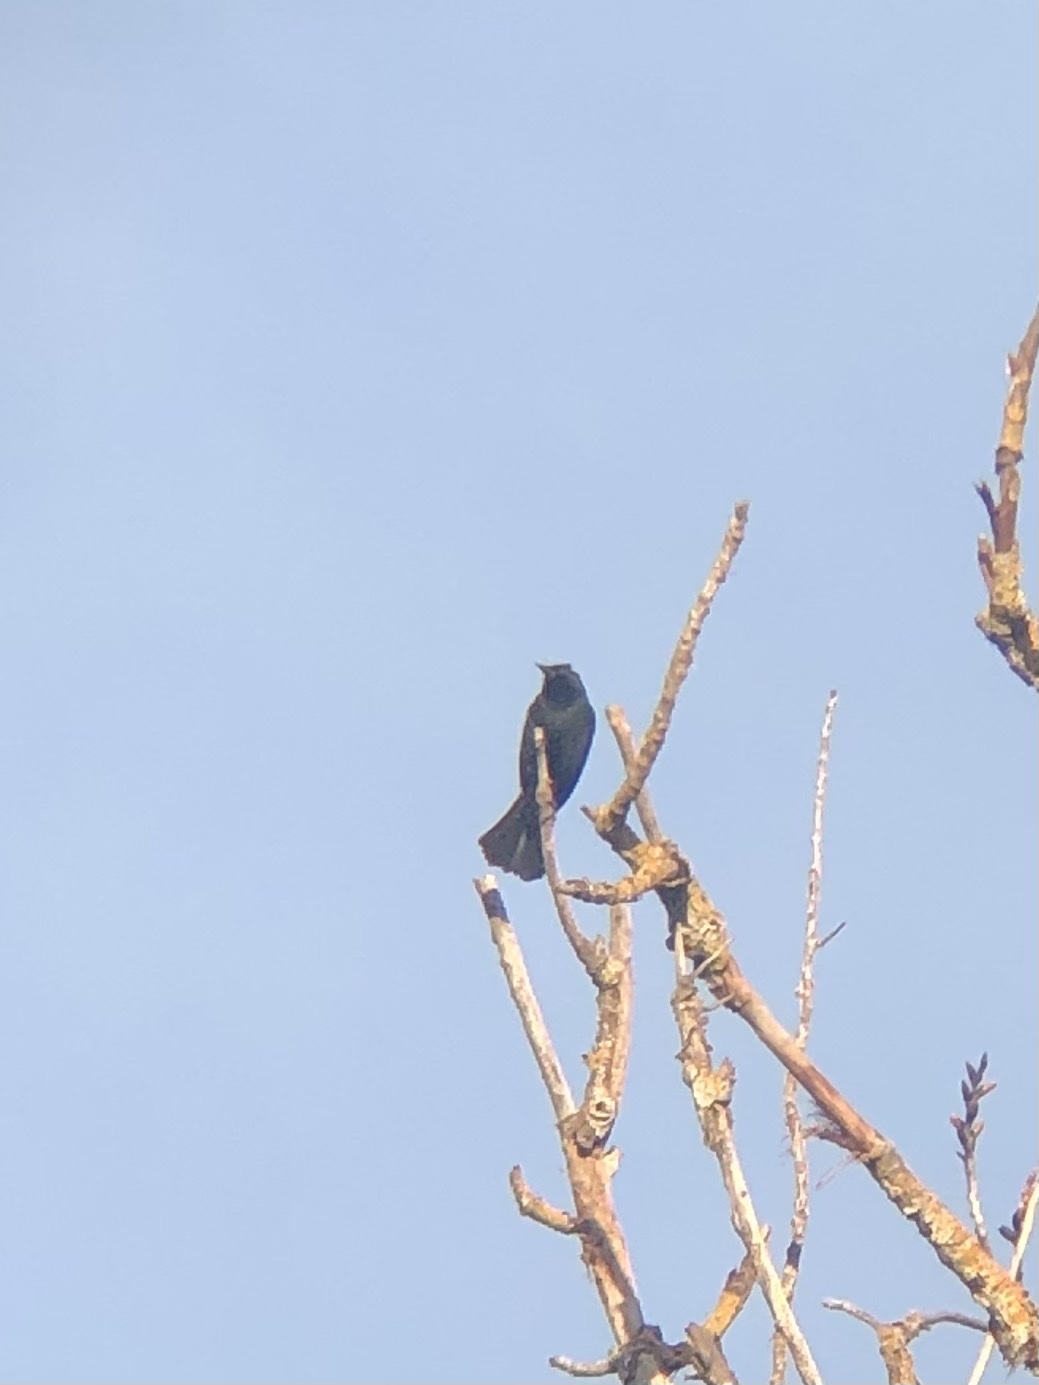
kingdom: Animalia
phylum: Chordata
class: Aves
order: Passeriformes
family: Icteridae
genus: Agelaius
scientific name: Agelaius phoeniceus
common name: Red-winged blackbird
